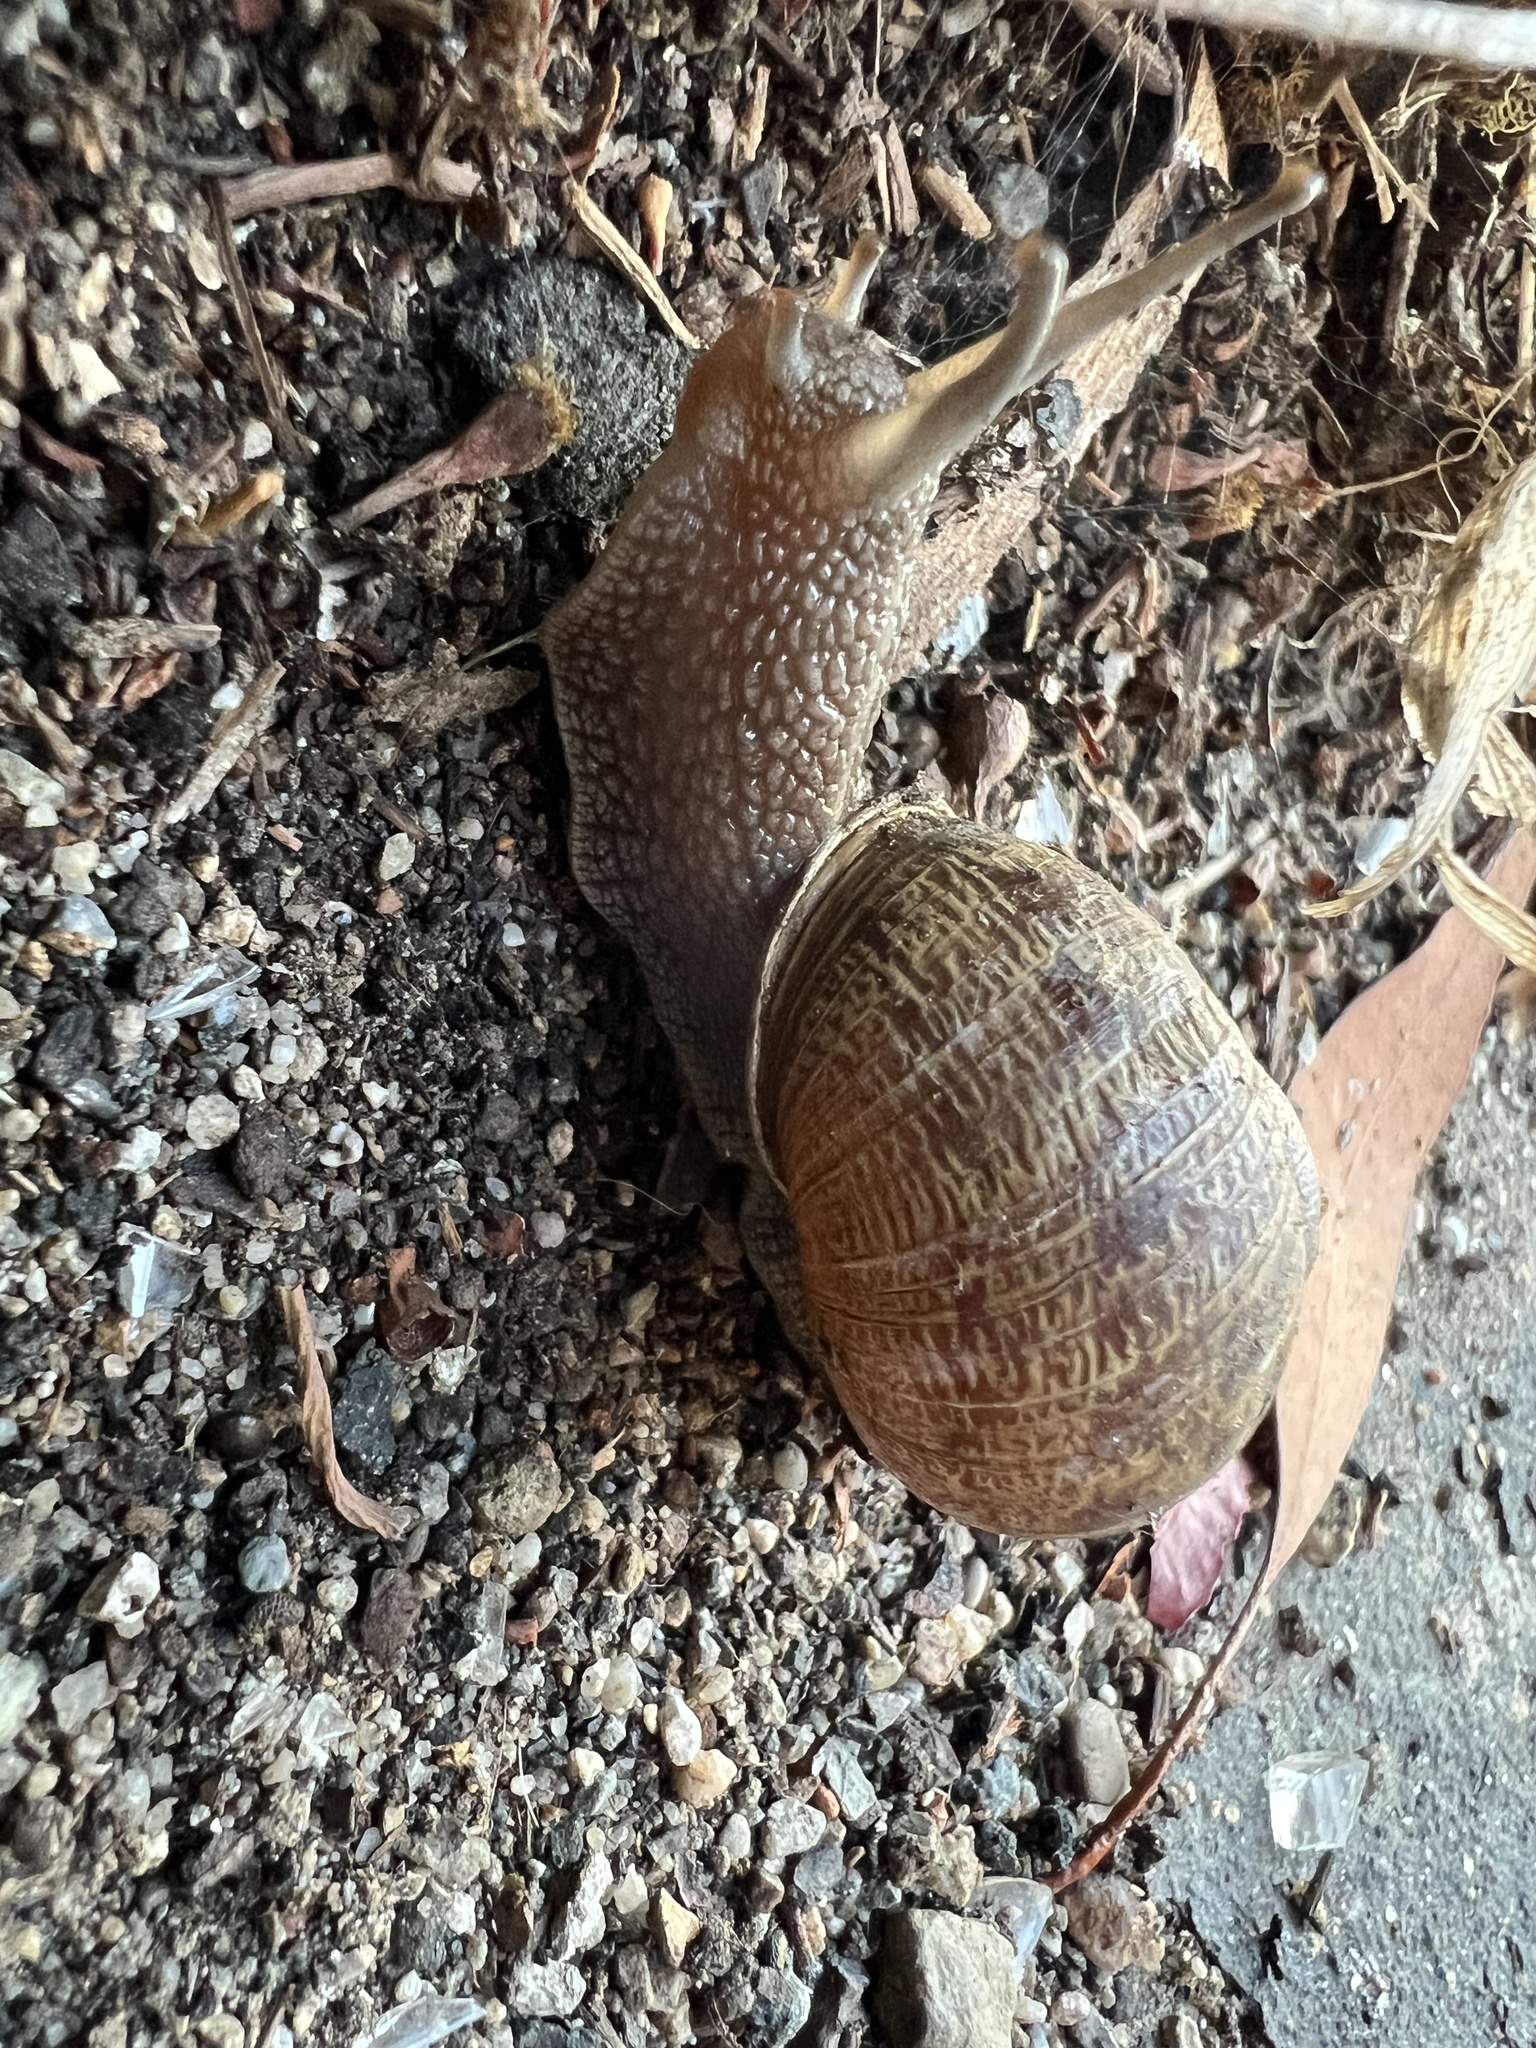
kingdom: Animalia
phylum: Mollusca
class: Gastropoda
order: Stylommatophora
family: Helicidae
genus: Cornu
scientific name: Cornu aspersum
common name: Brown garden snail
